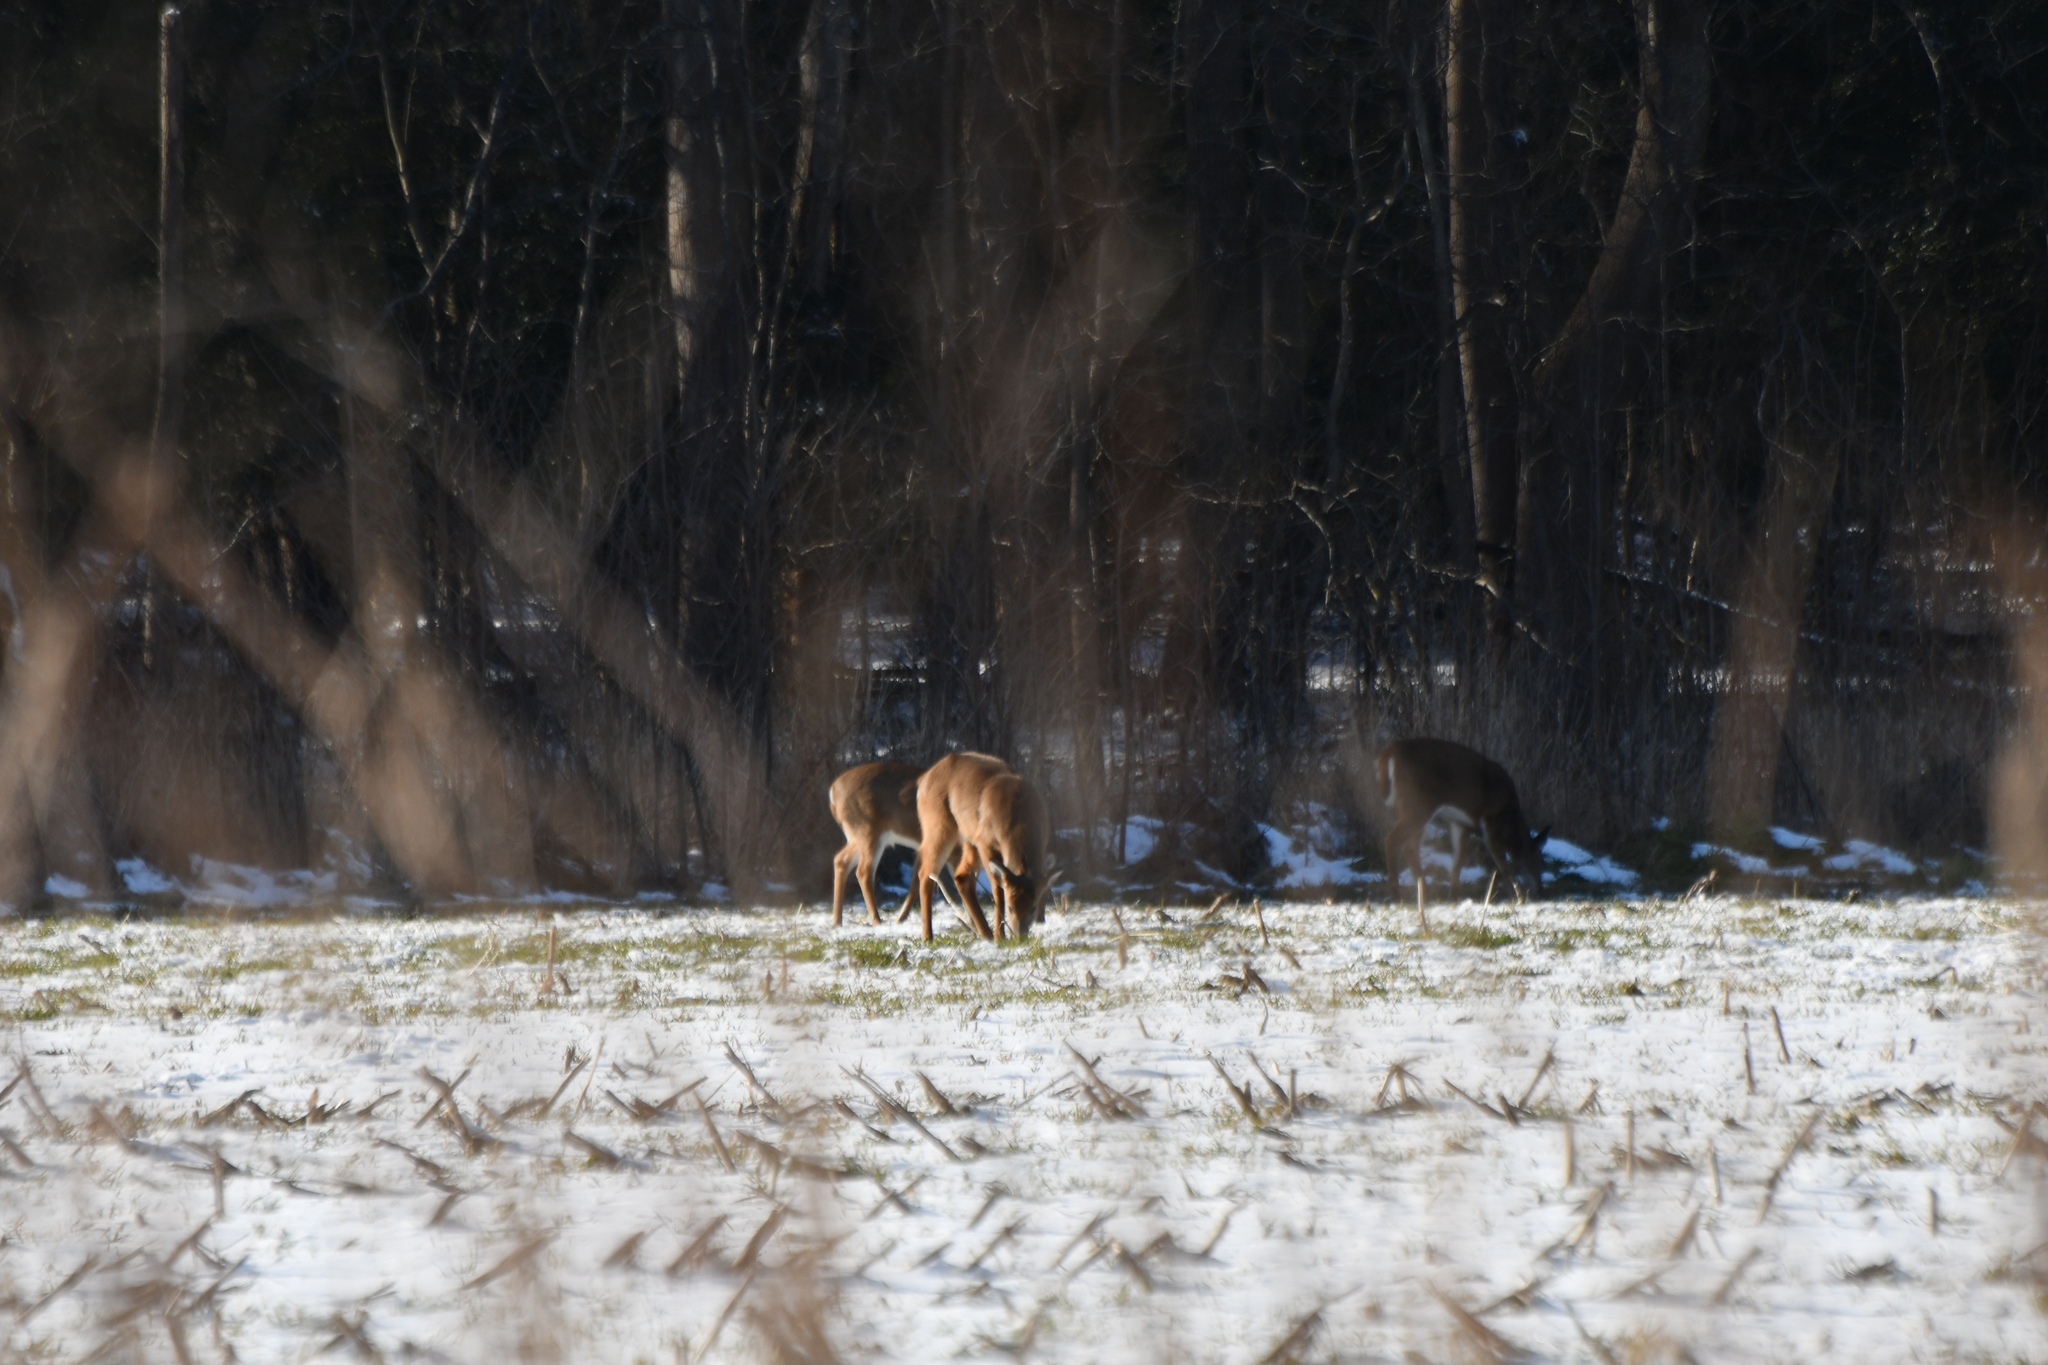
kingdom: Animalia
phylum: Chordata
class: Mammalia
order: Artiodactyla
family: Cervidae
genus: Odocoileus
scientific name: Odocoileus virginianus
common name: White-tailed deer
